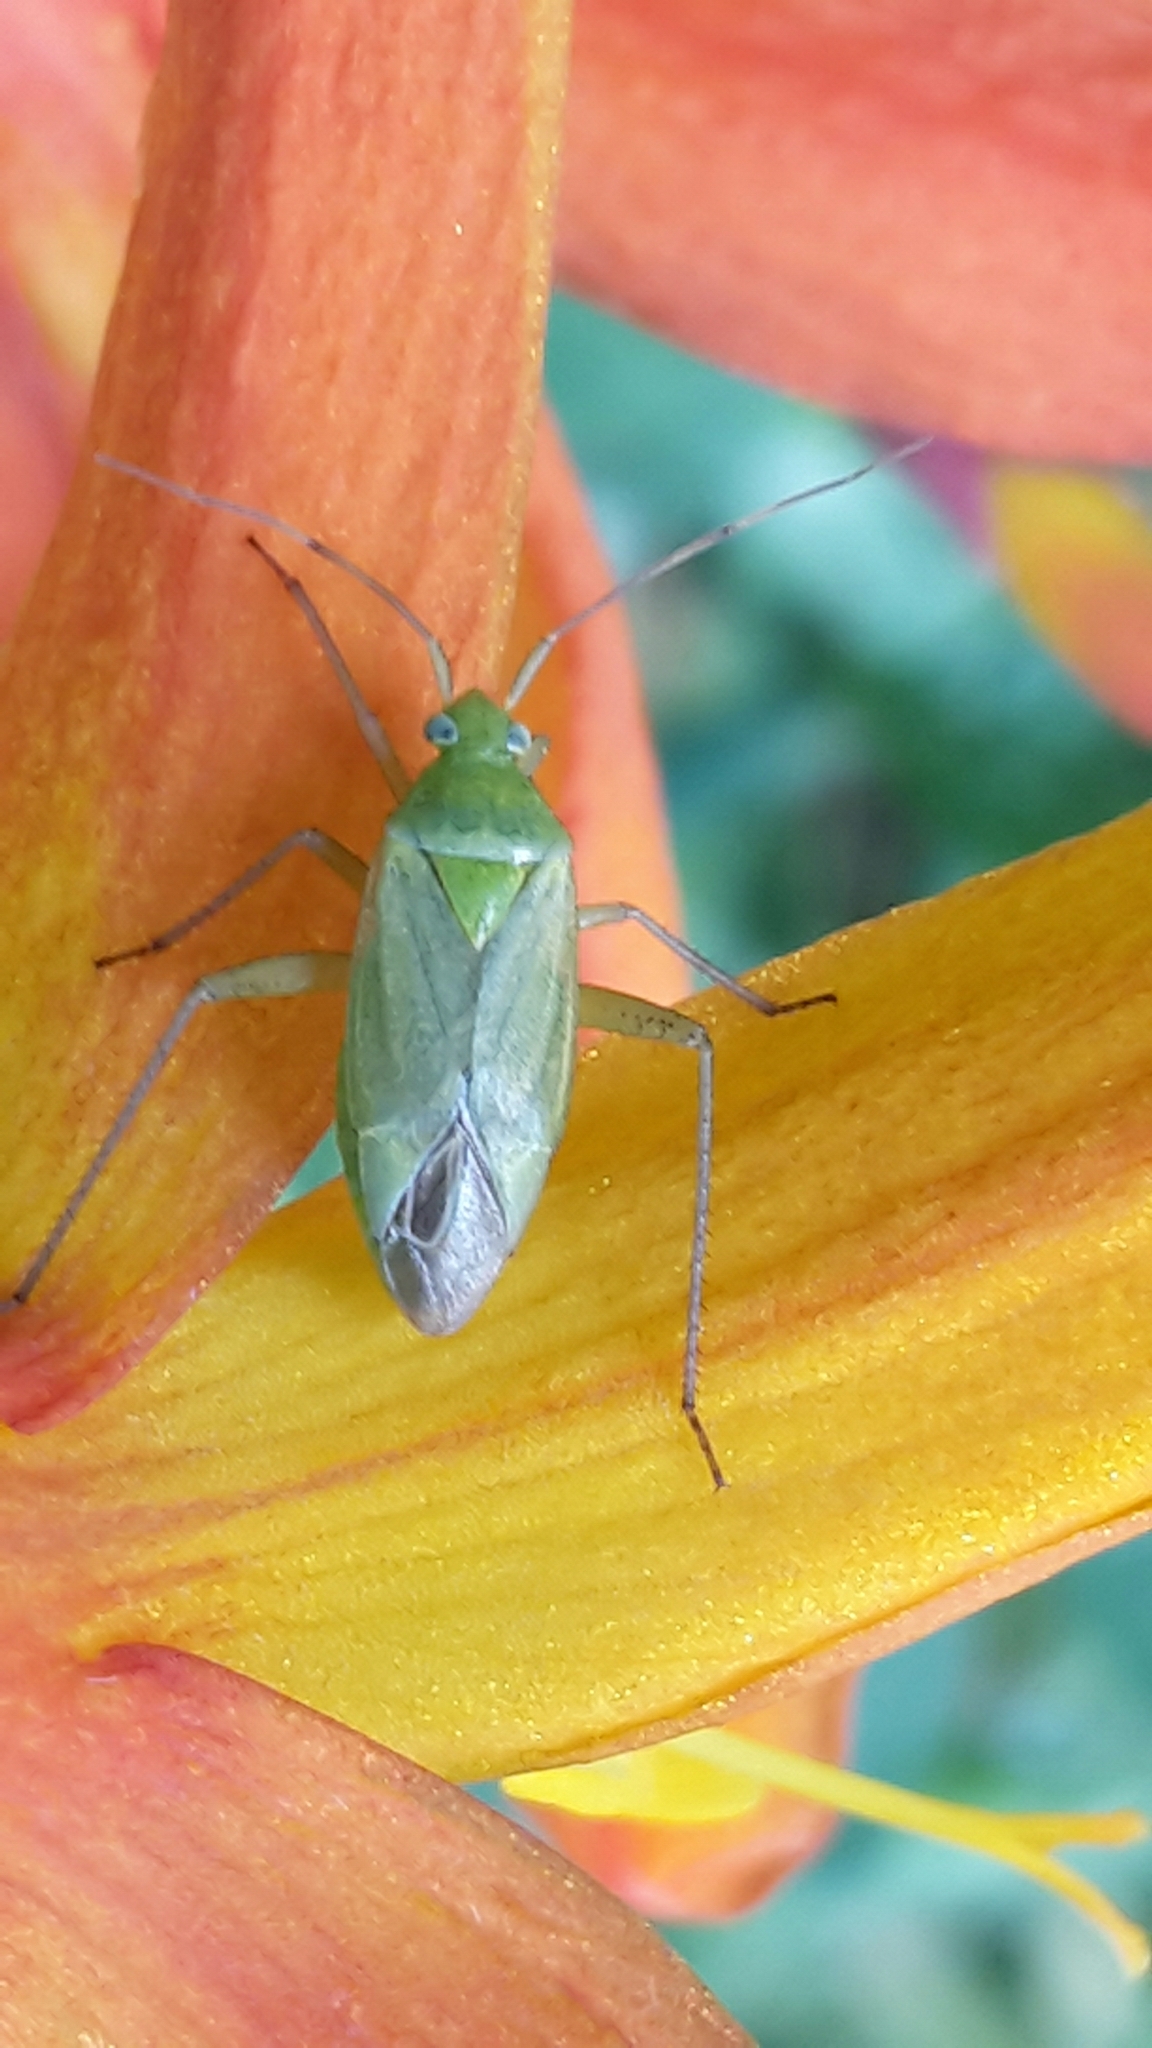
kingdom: Animalia
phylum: Arthropoda
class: Insecta
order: Hemiptera
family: Miridae
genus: Closterotomus
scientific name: Closterotomus norvegicus
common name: Plant bug
